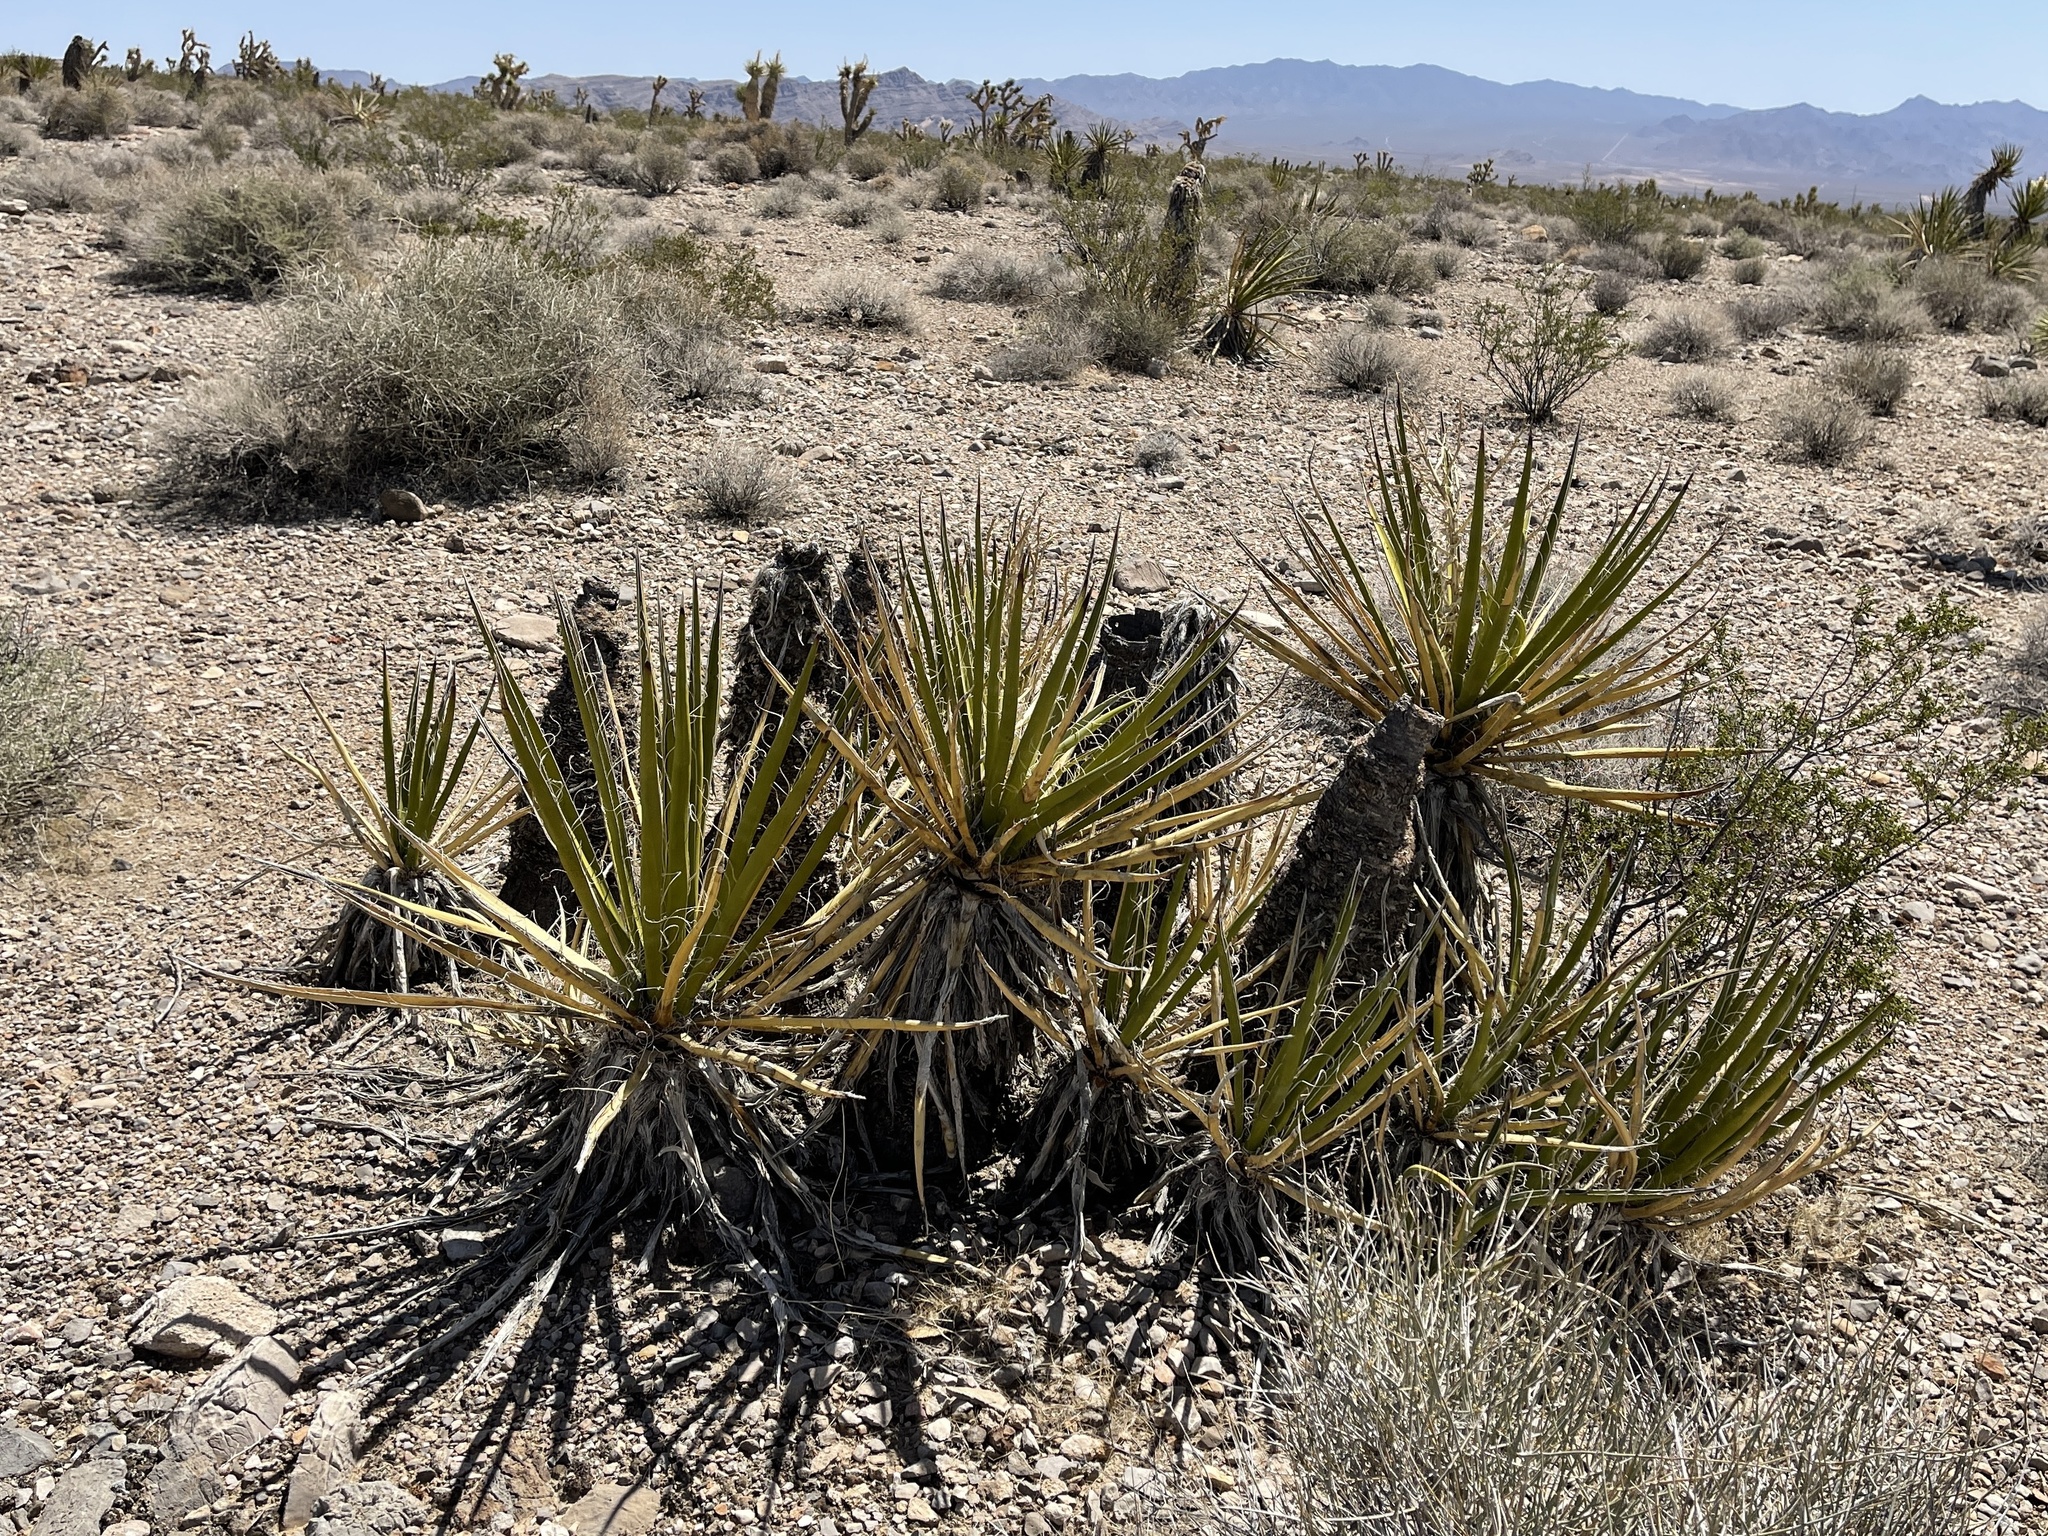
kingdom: Plantae
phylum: Tracheophyta
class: Liliopsida
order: Asparagales
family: Asparagaceae
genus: Yucca
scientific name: Yucca schidigera
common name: Mojave yucca
